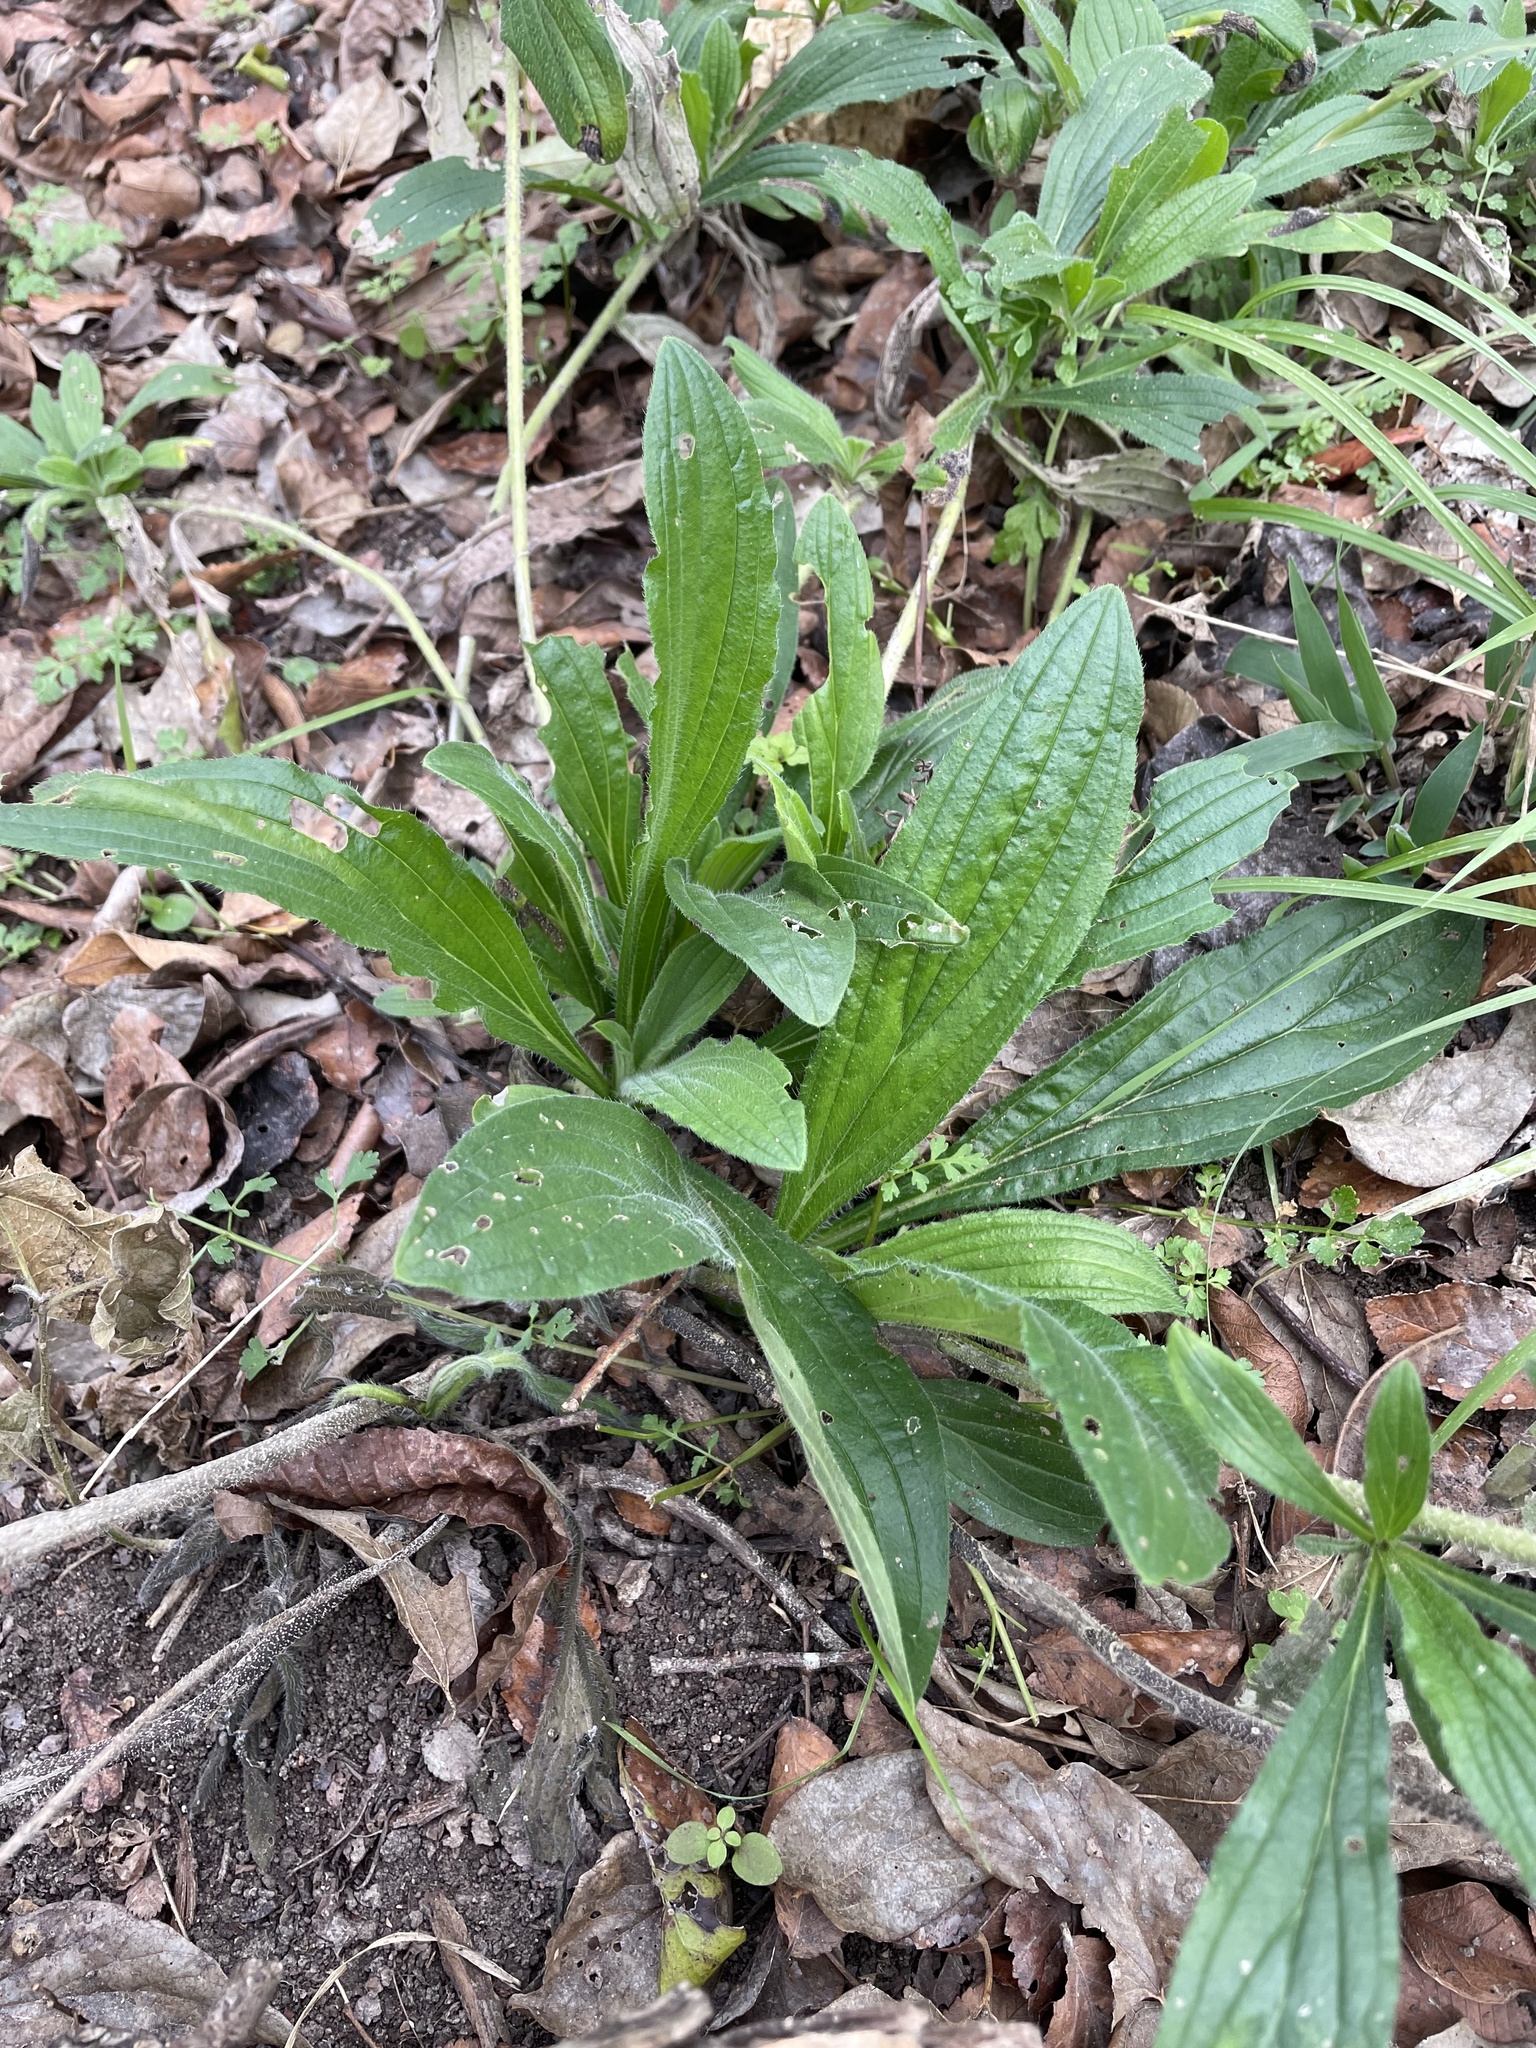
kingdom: Plantae
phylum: Tracheophyta
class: Magnoliopsida
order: Boraginales
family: Boraginaceae
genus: Lithospermum
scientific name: Lithospermum caroliniense
